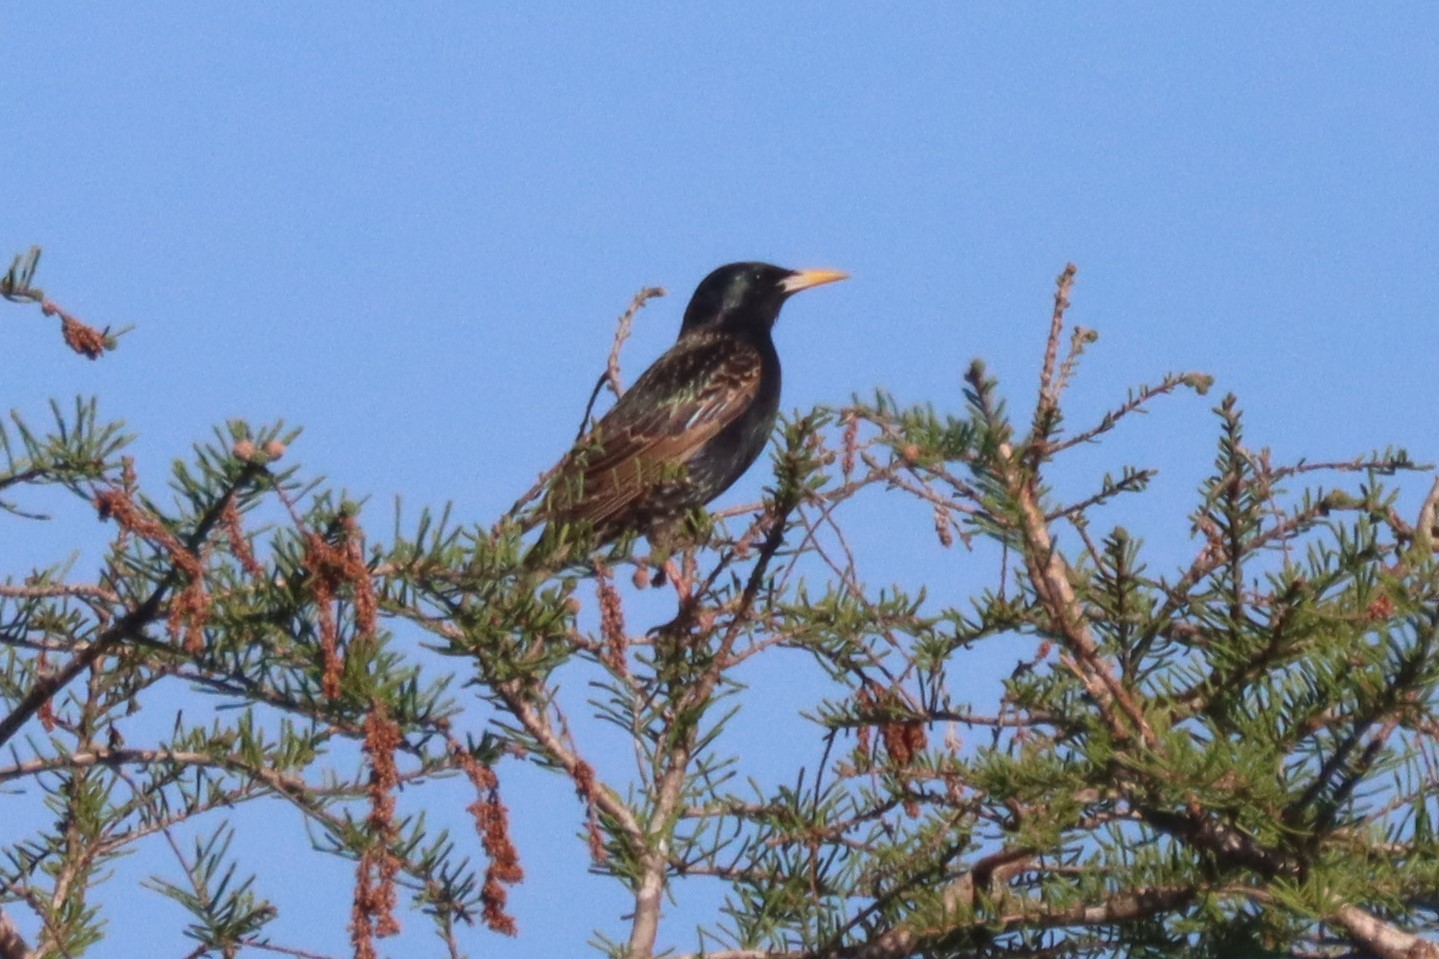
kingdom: Animalia
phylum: Chordata
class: Aves
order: Passeriformes
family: Sturnidae
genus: Sturnus
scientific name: Sturnus vulgaris
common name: Common starling
